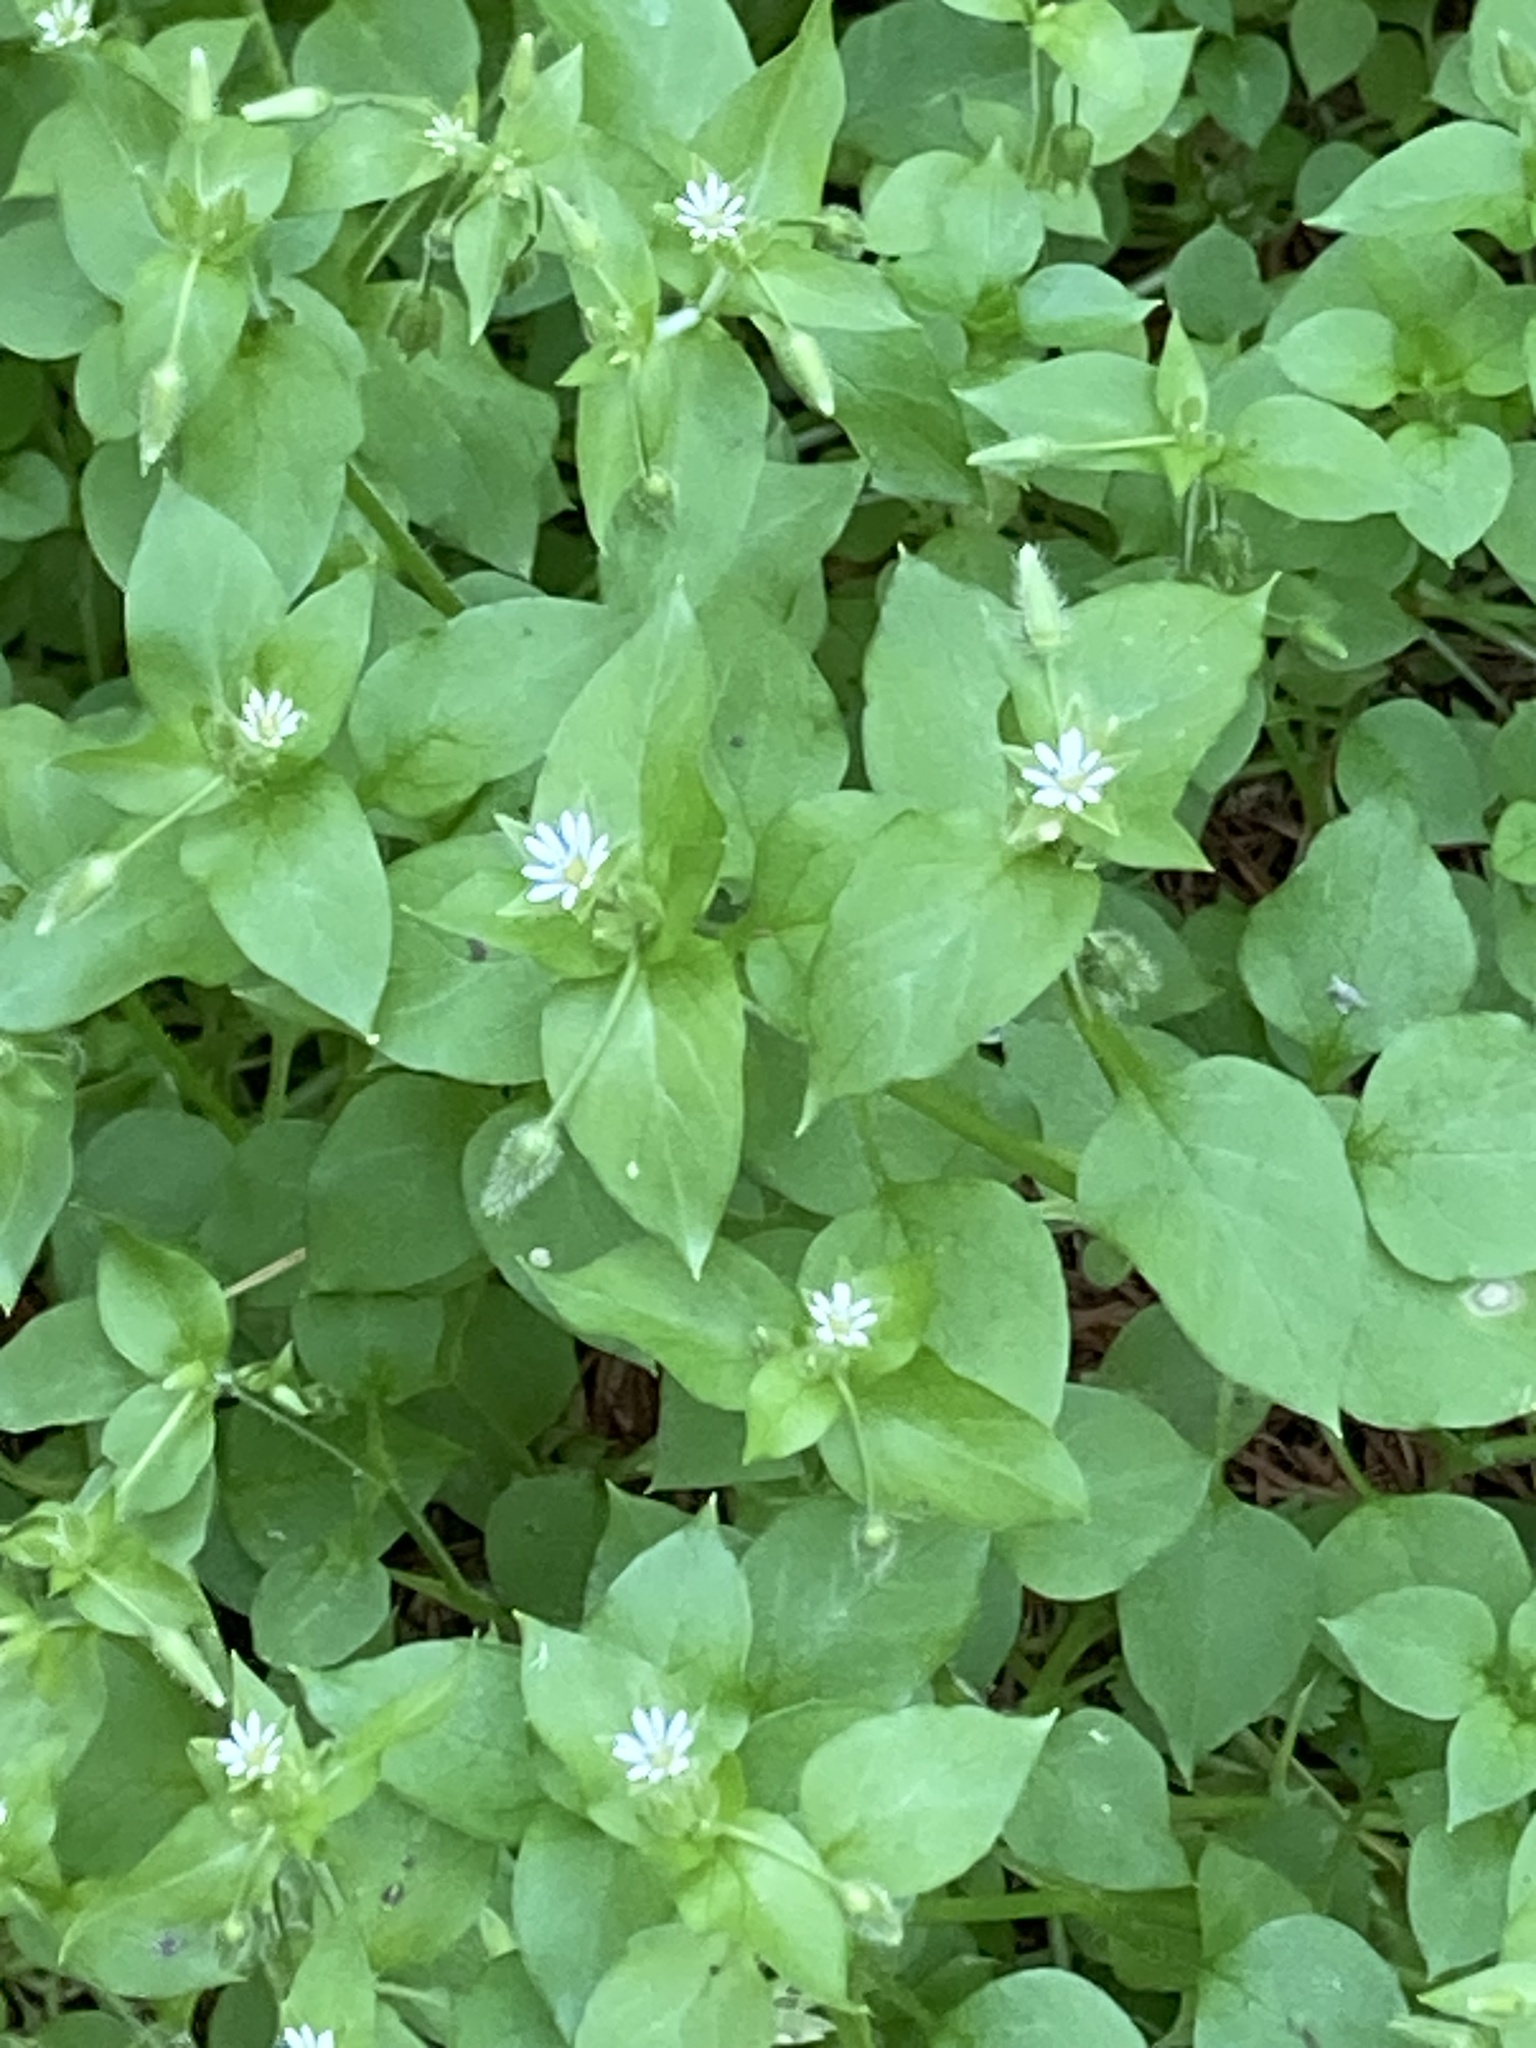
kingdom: Plantae
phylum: Tracheophyta
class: Magnoliopsida
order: Caryophyllales
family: Caryophyllaceae
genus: Stellaria
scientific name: Stellaria media
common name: Common chickweed
